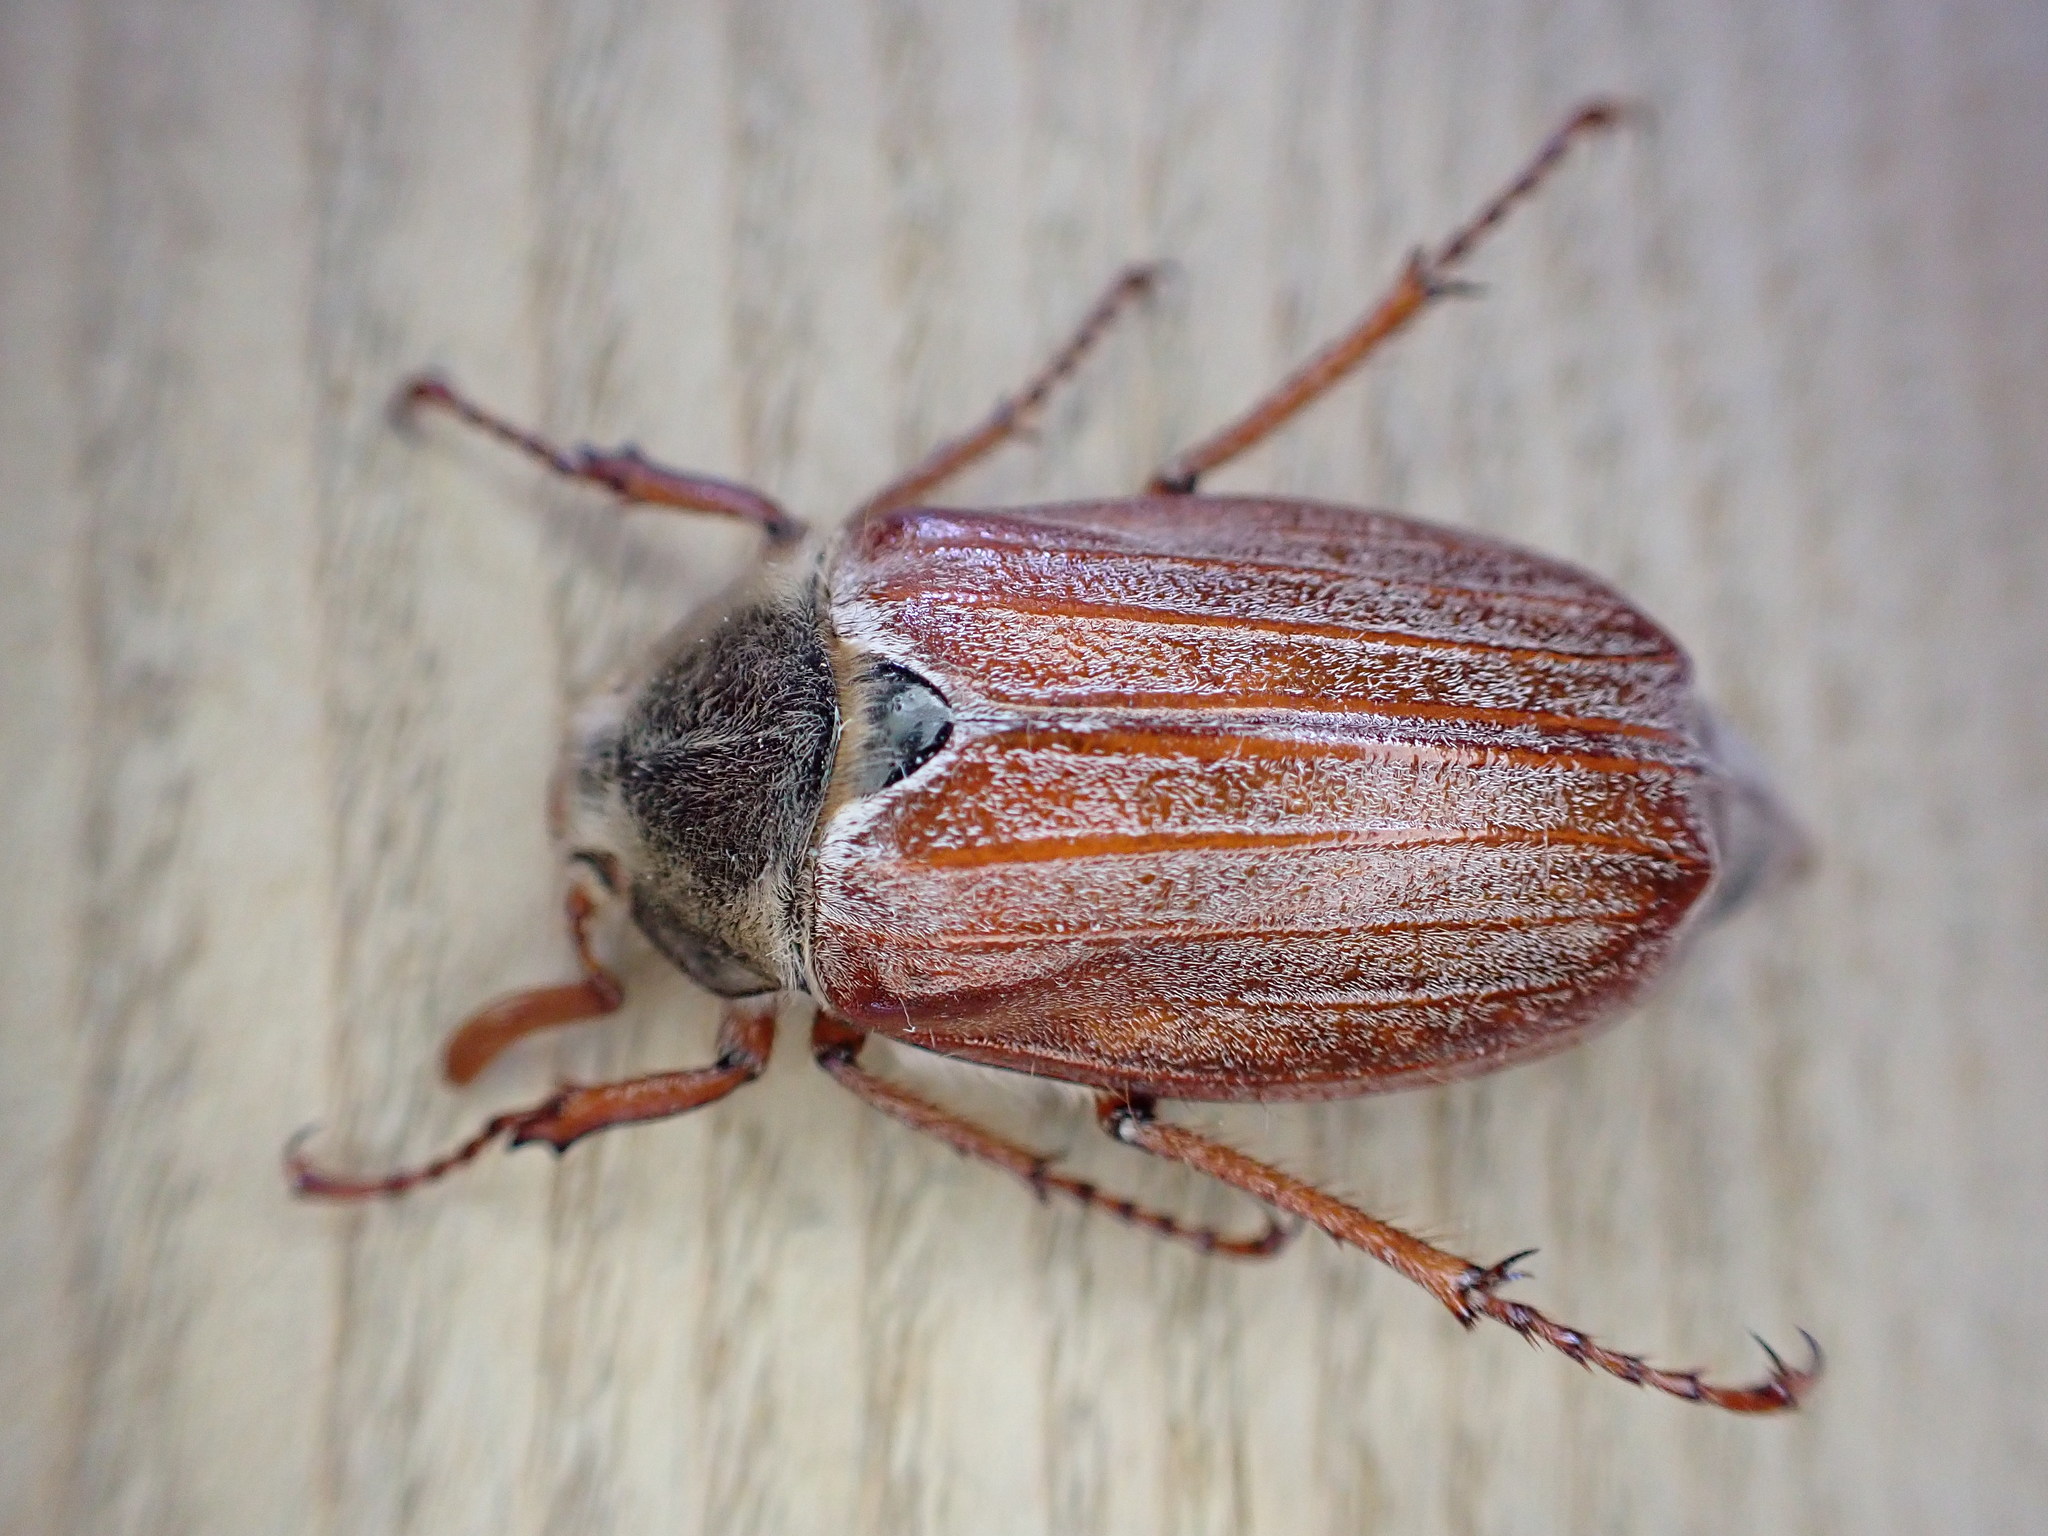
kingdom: Animalia
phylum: Arthropoda
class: Insecta
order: Coleoptera
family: Scarabaeidae
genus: Melolontha
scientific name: Melolontha melolontha
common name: Cockchafer maybeetle
